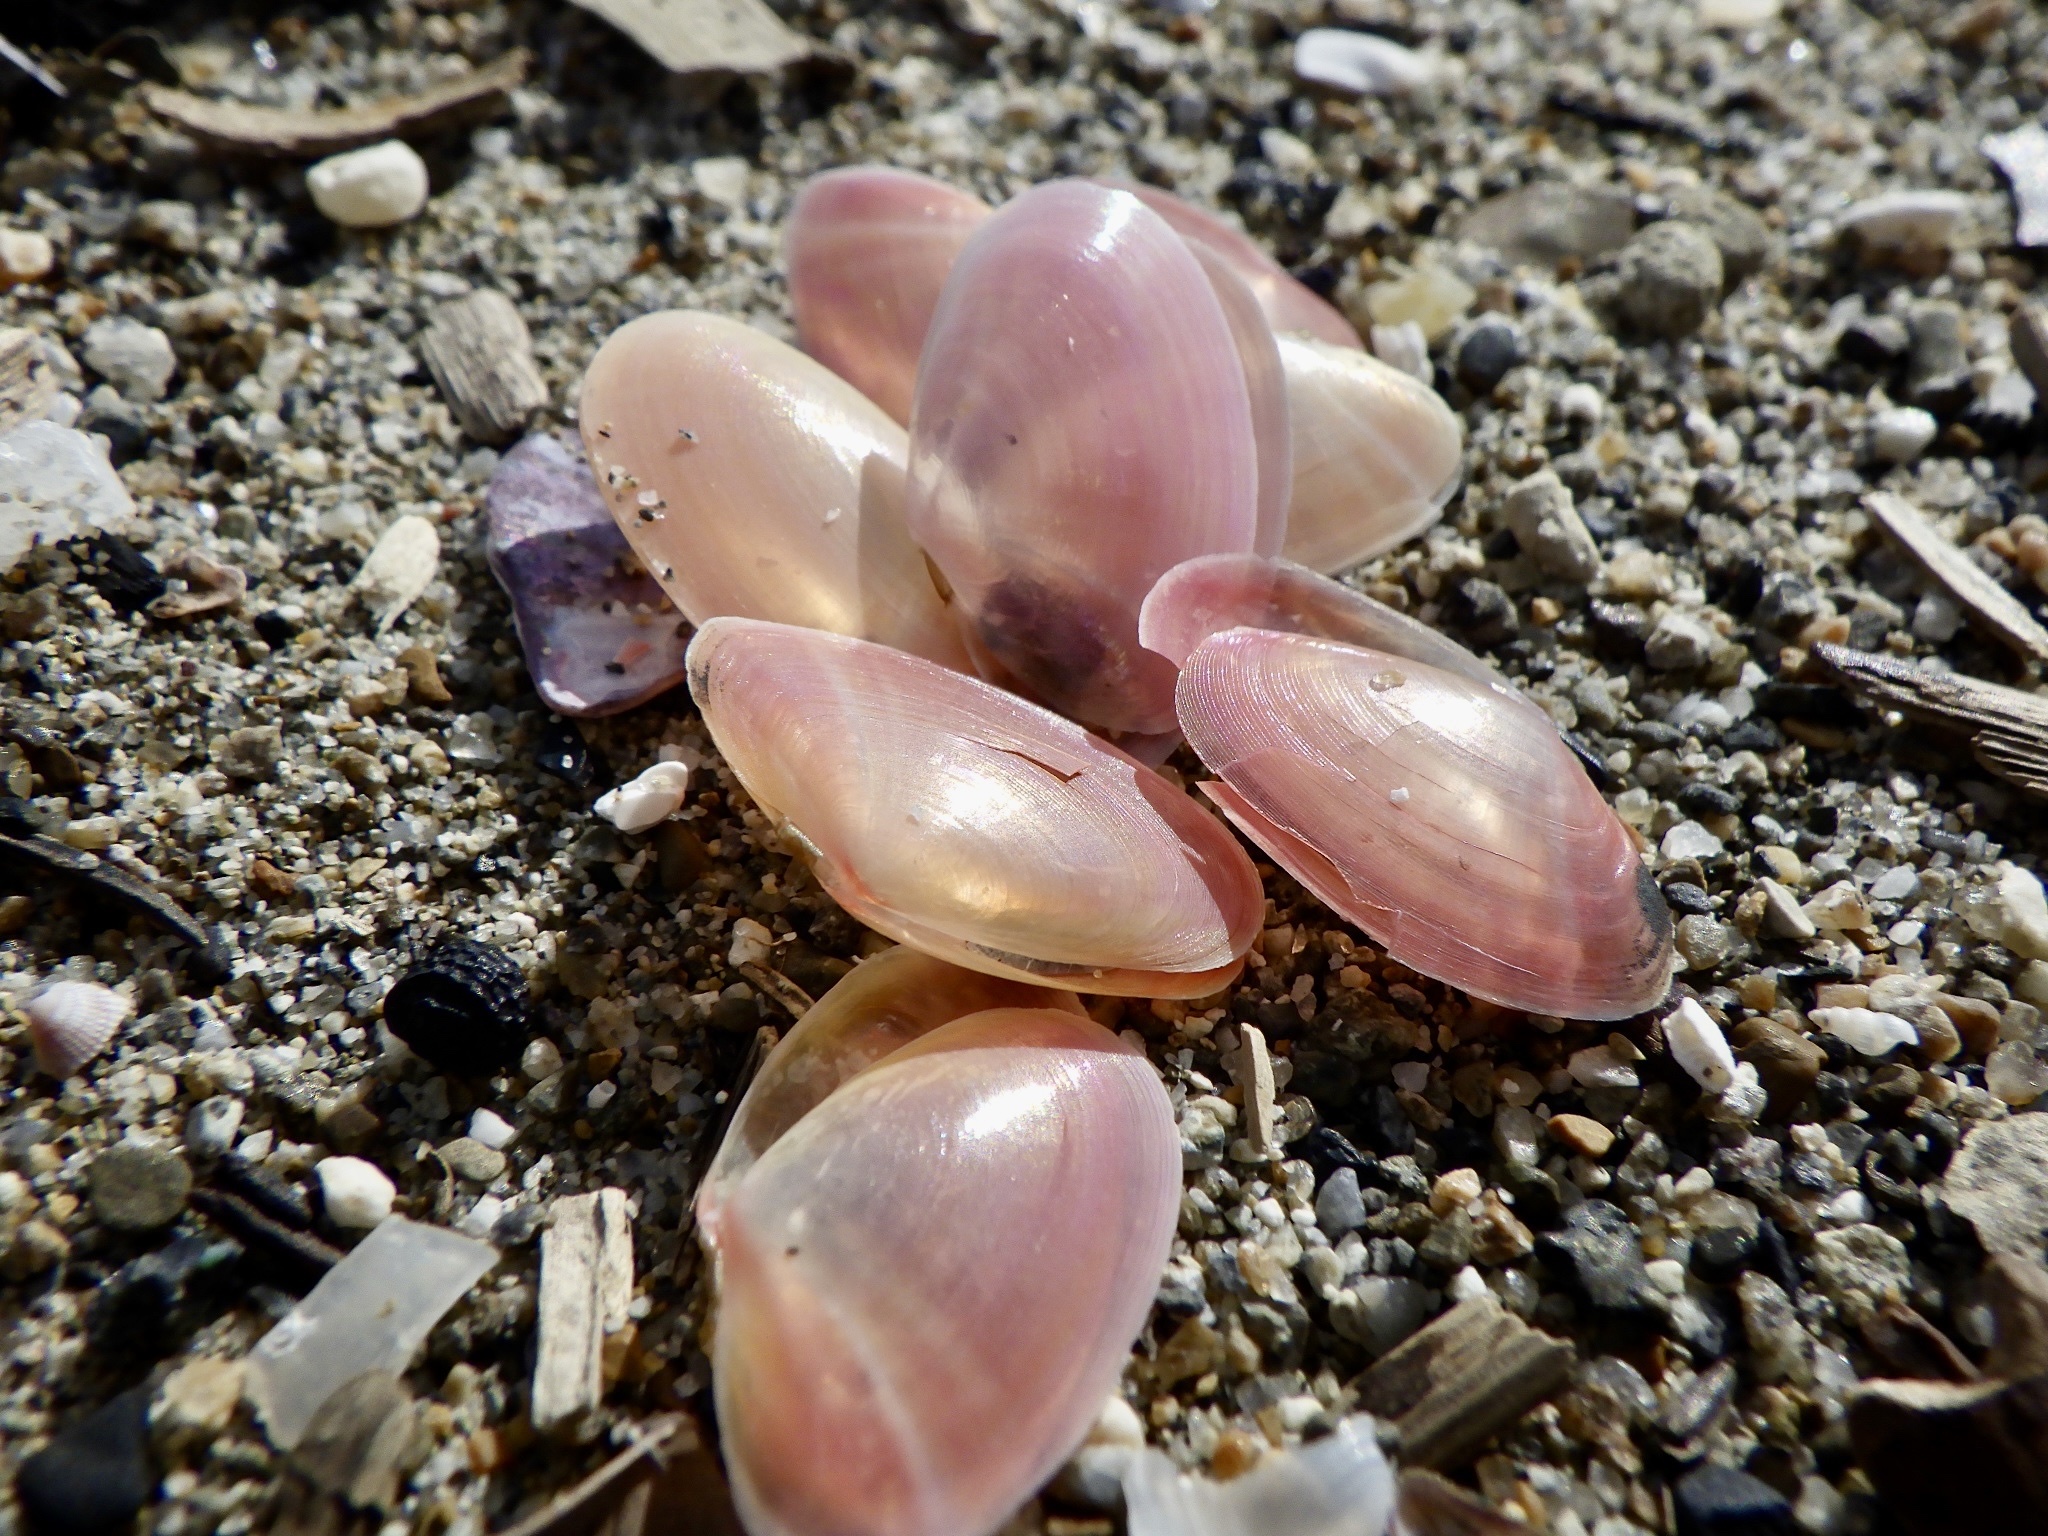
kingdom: Animalia
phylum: Mollusca
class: Bivalvia
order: Cardiida
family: Tellinidae
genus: Nitidotellina
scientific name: Nitidotellina valtonis
